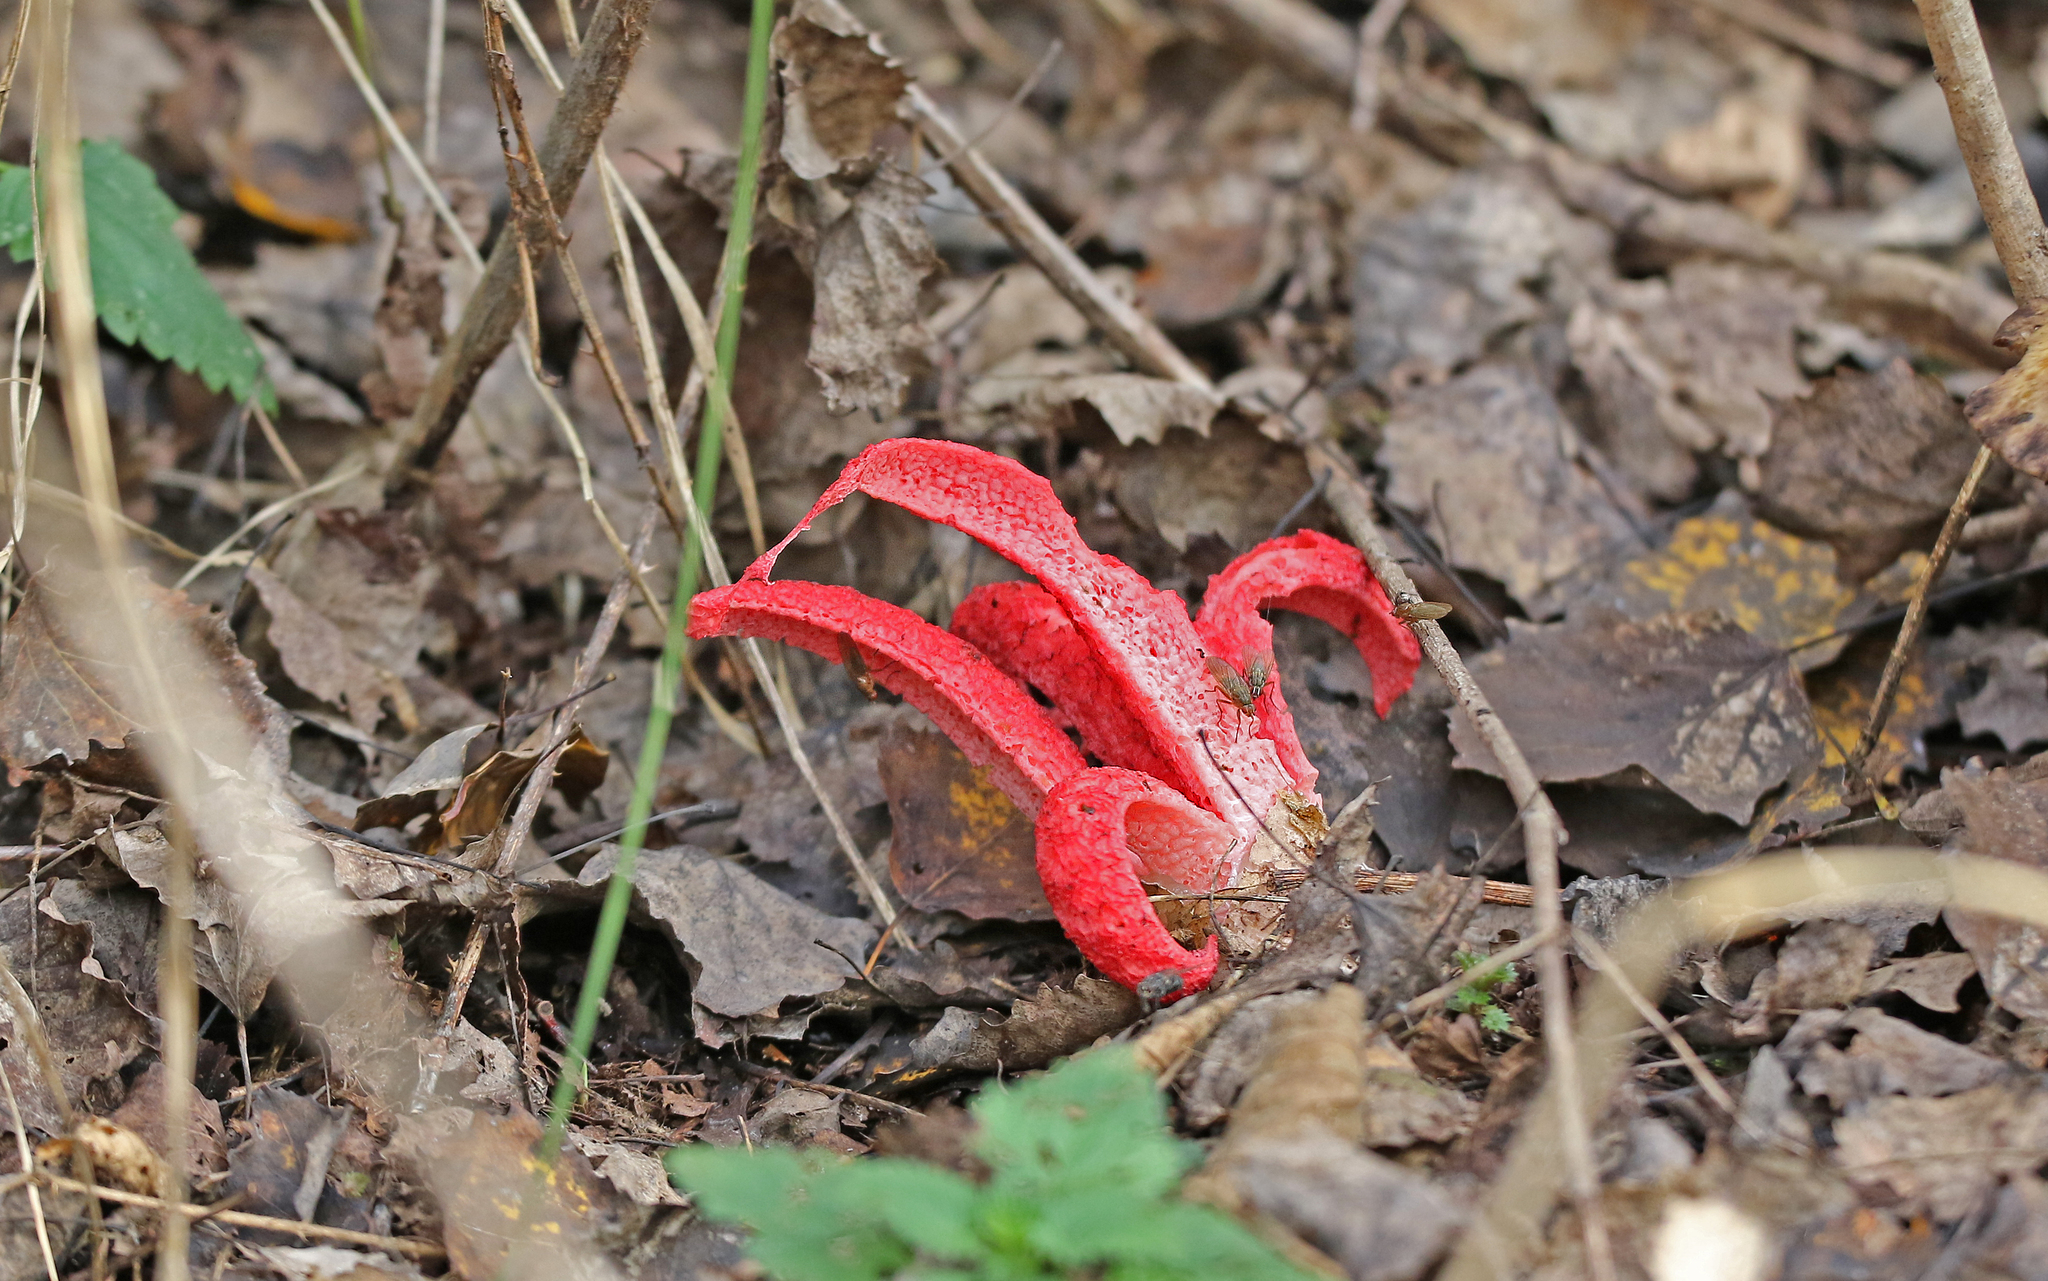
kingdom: Fungi
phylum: Basidiomycota
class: Agaricomycetes
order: Phallales
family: Phallaceae
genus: Clathrus
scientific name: Clathrus archeri
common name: Devil's fingers
